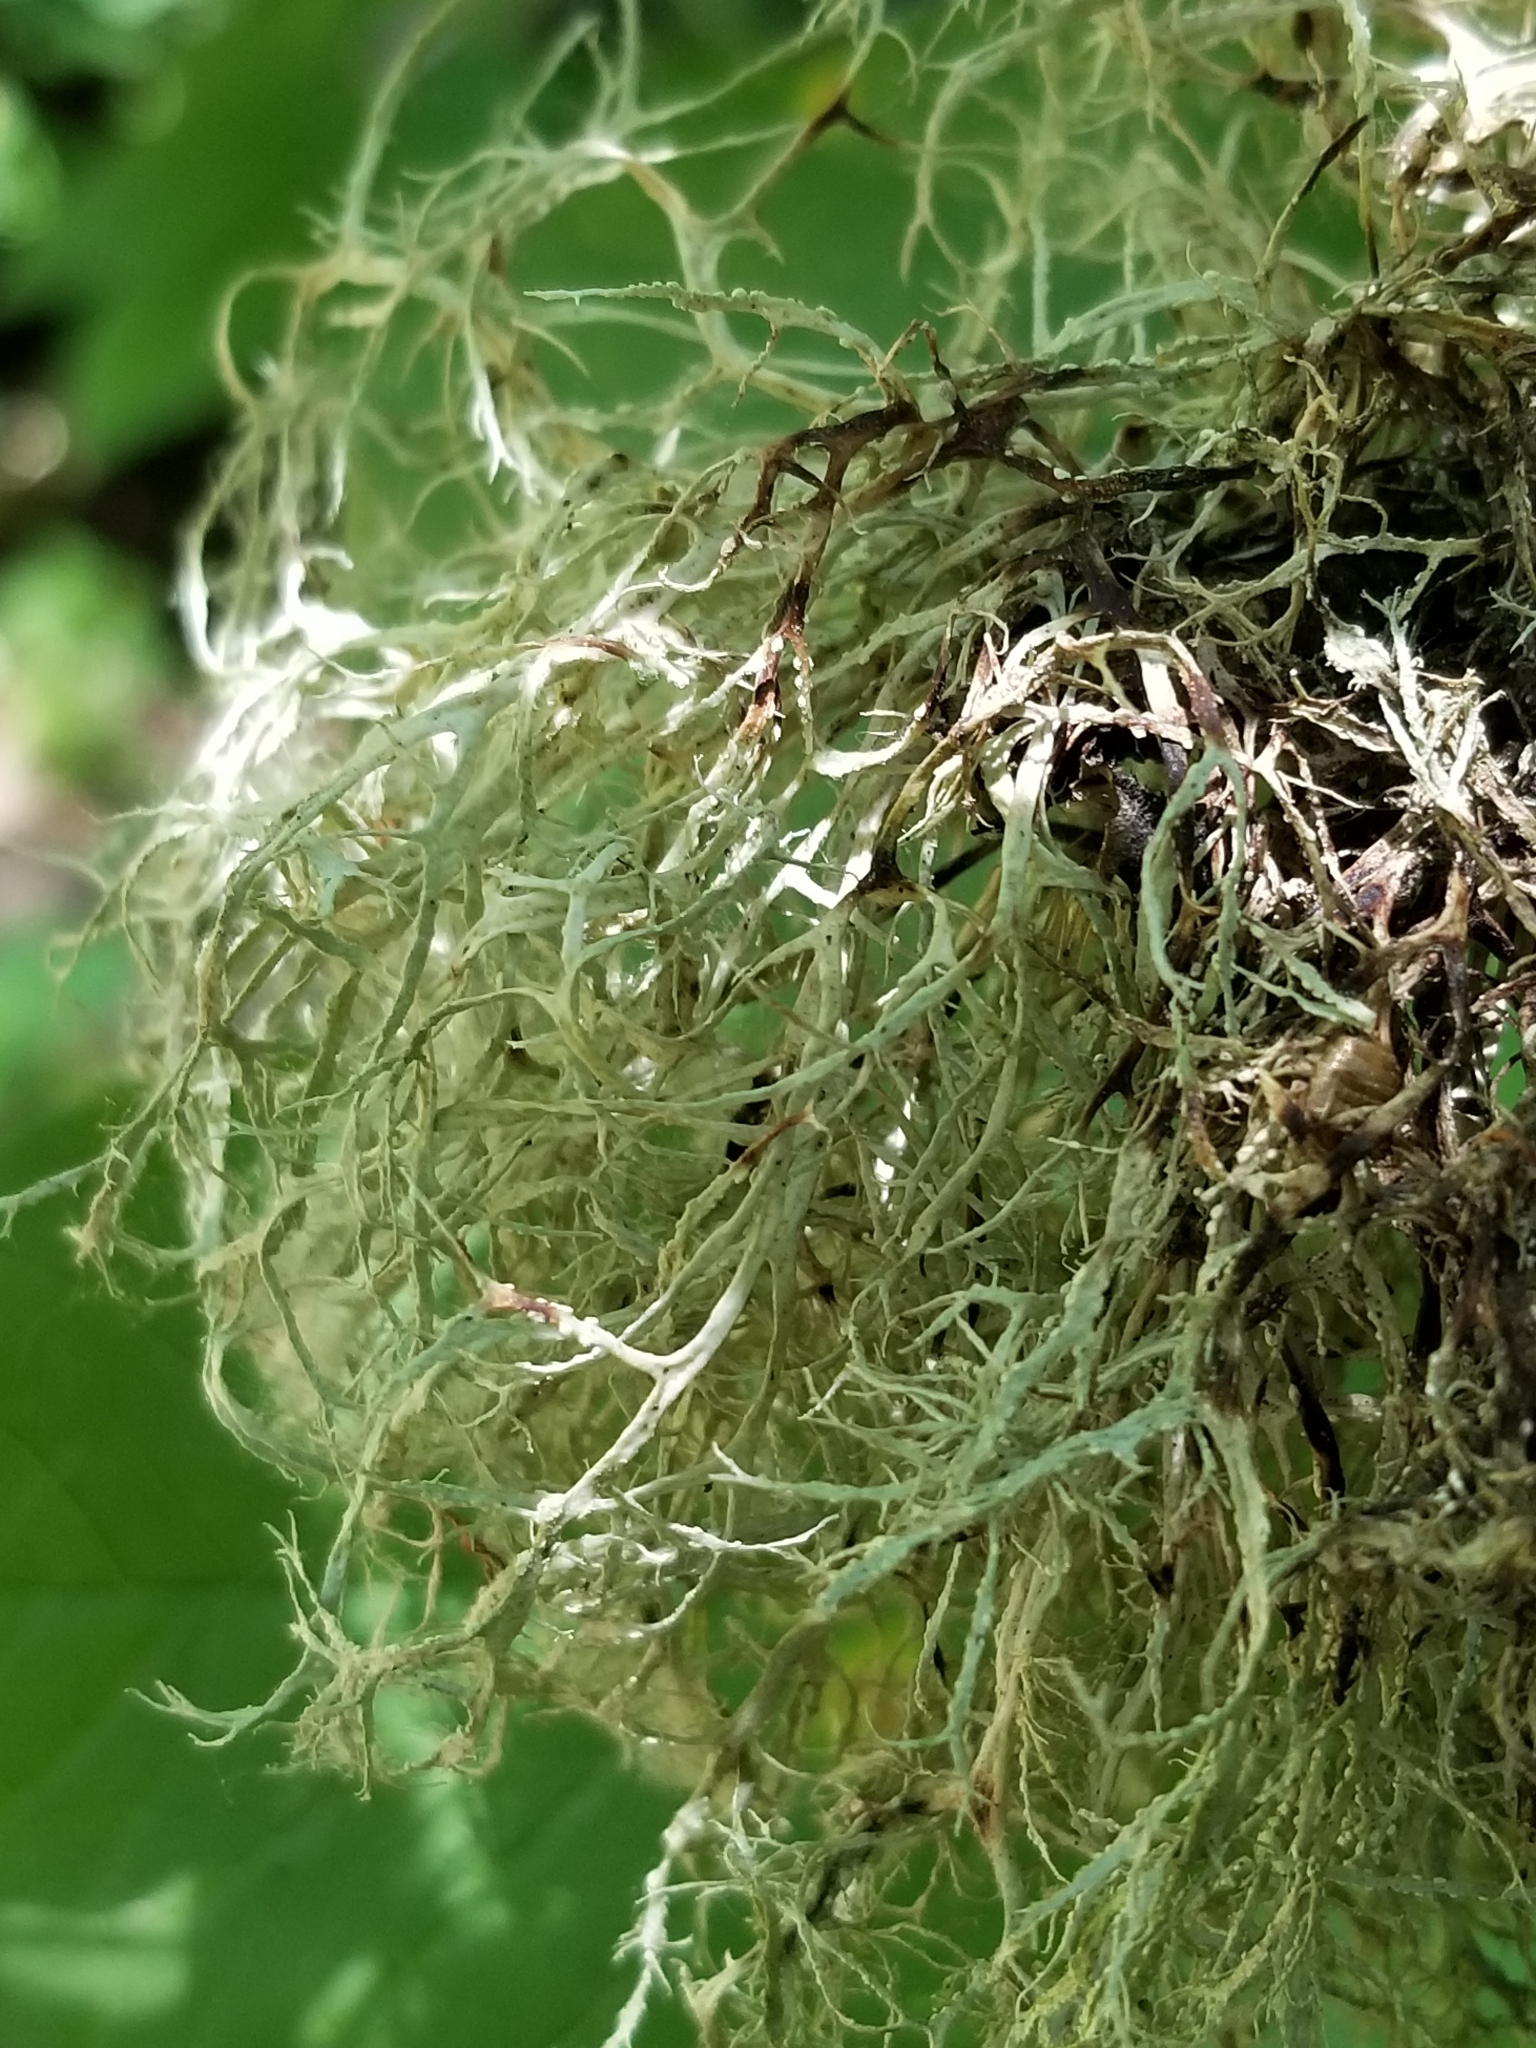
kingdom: Fungi
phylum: Ascomycota
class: Lecanoromycetes
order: Lecanorales
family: Ramalinaceae
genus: Ramalina
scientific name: Ramalina farinacea
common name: Farinose cartilage lichen
